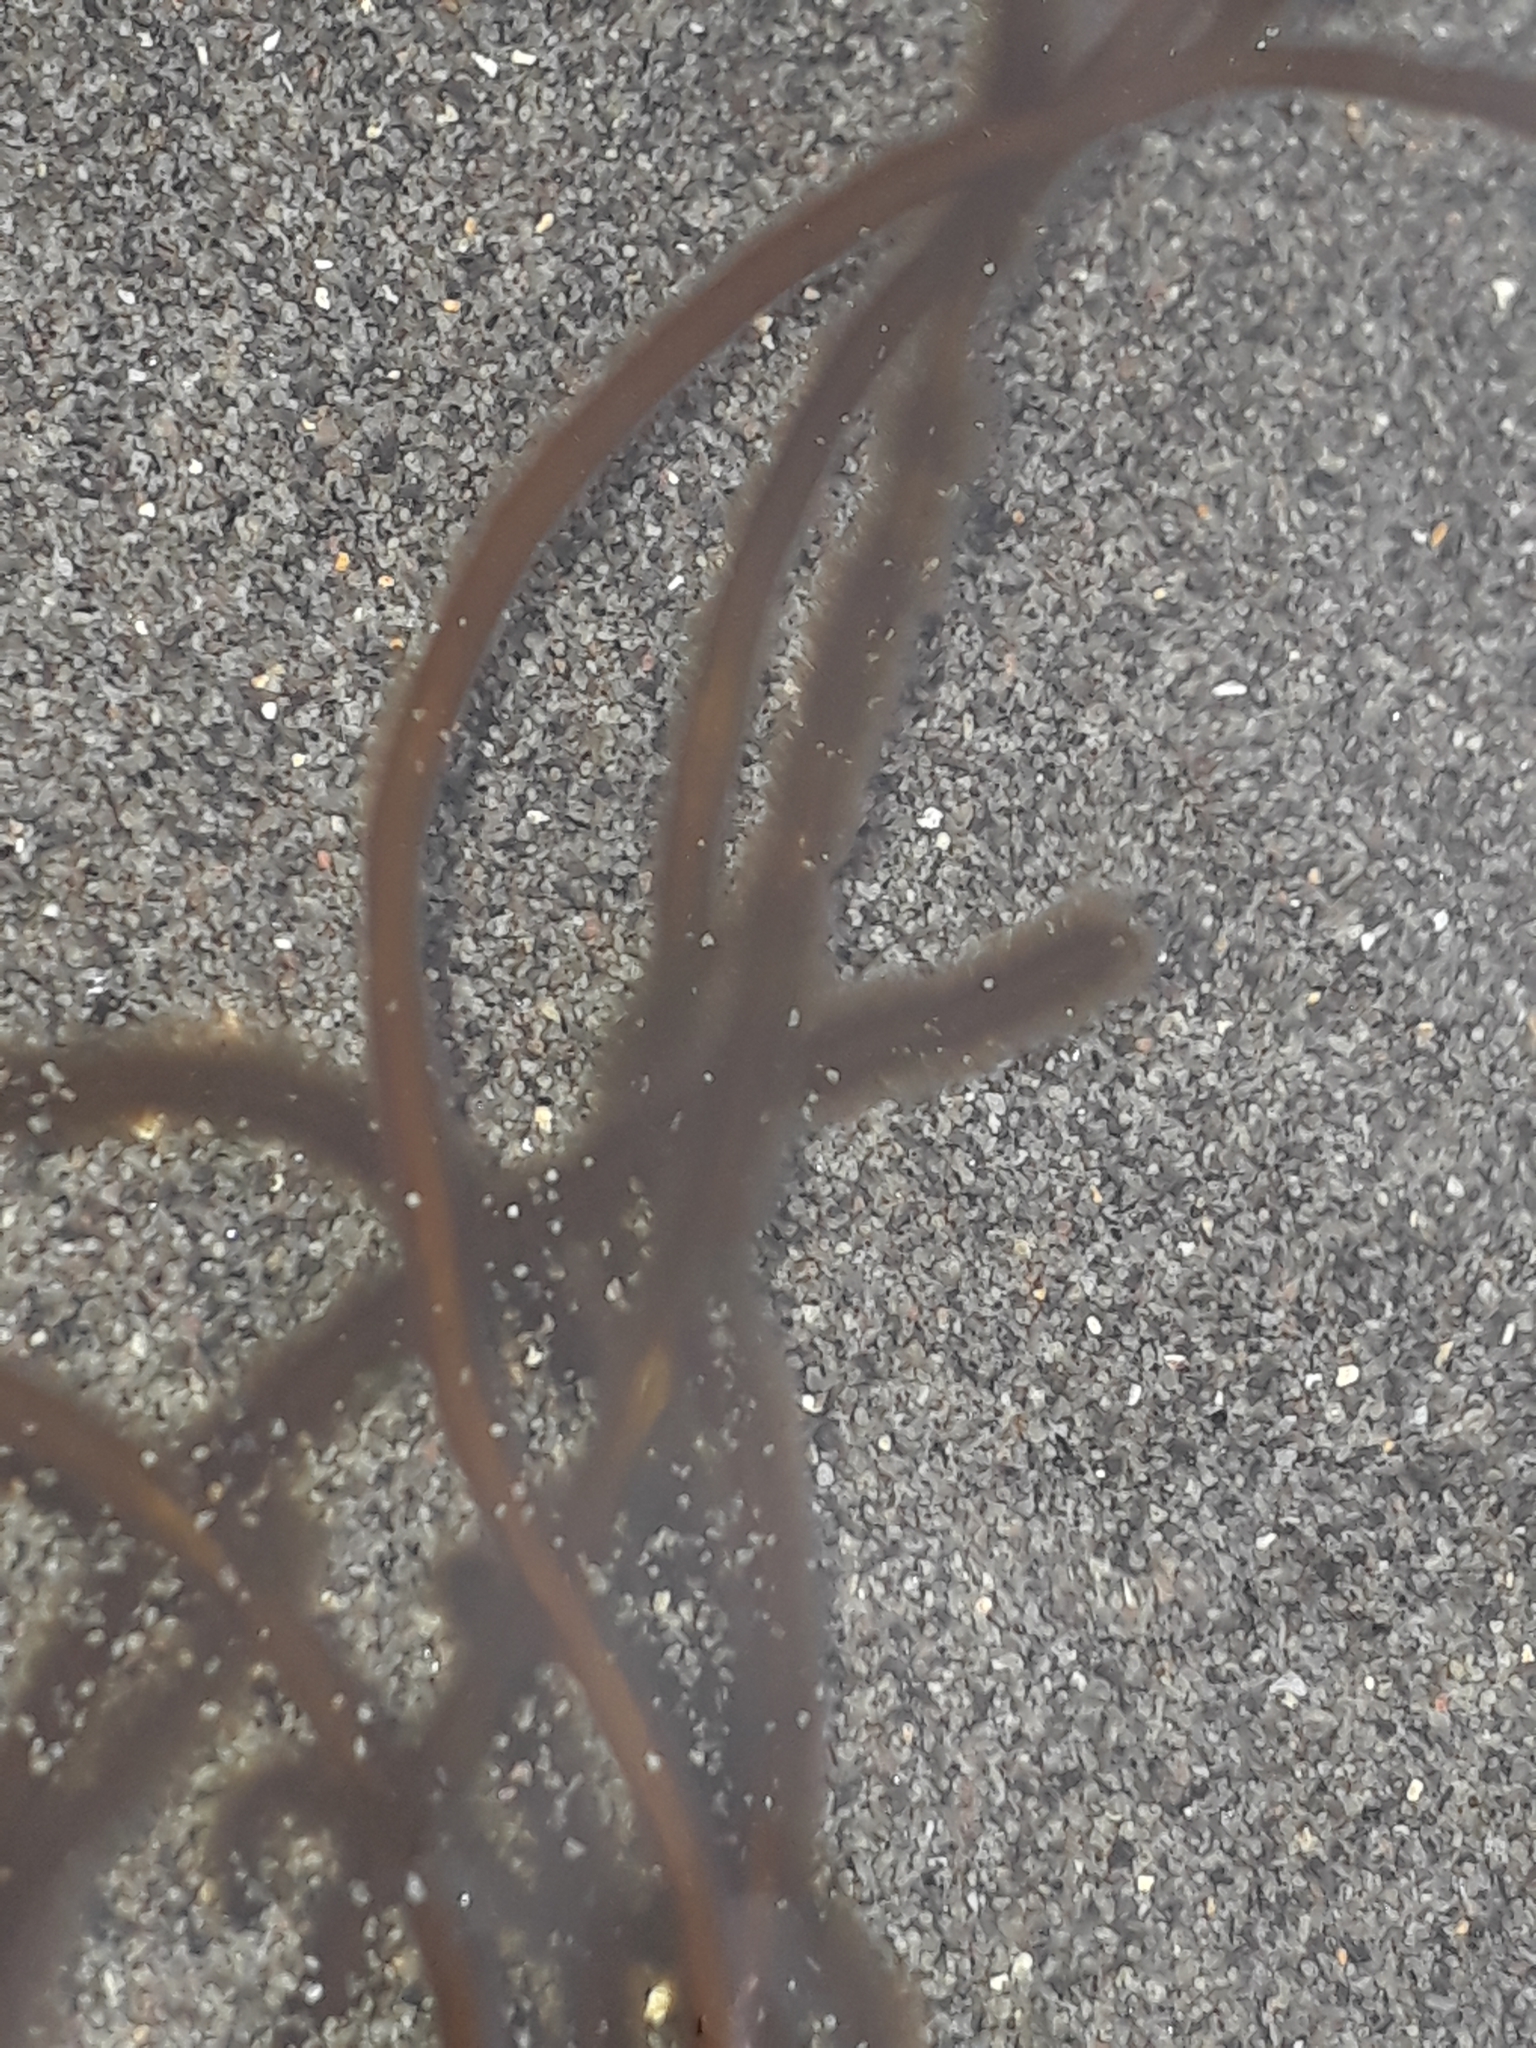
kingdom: Chromista
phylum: Ochrophyta
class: Phaeophyceae
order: Ectocarpales
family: Chordariaceae
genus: Myriogloea
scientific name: Myriogloea intestinalis
